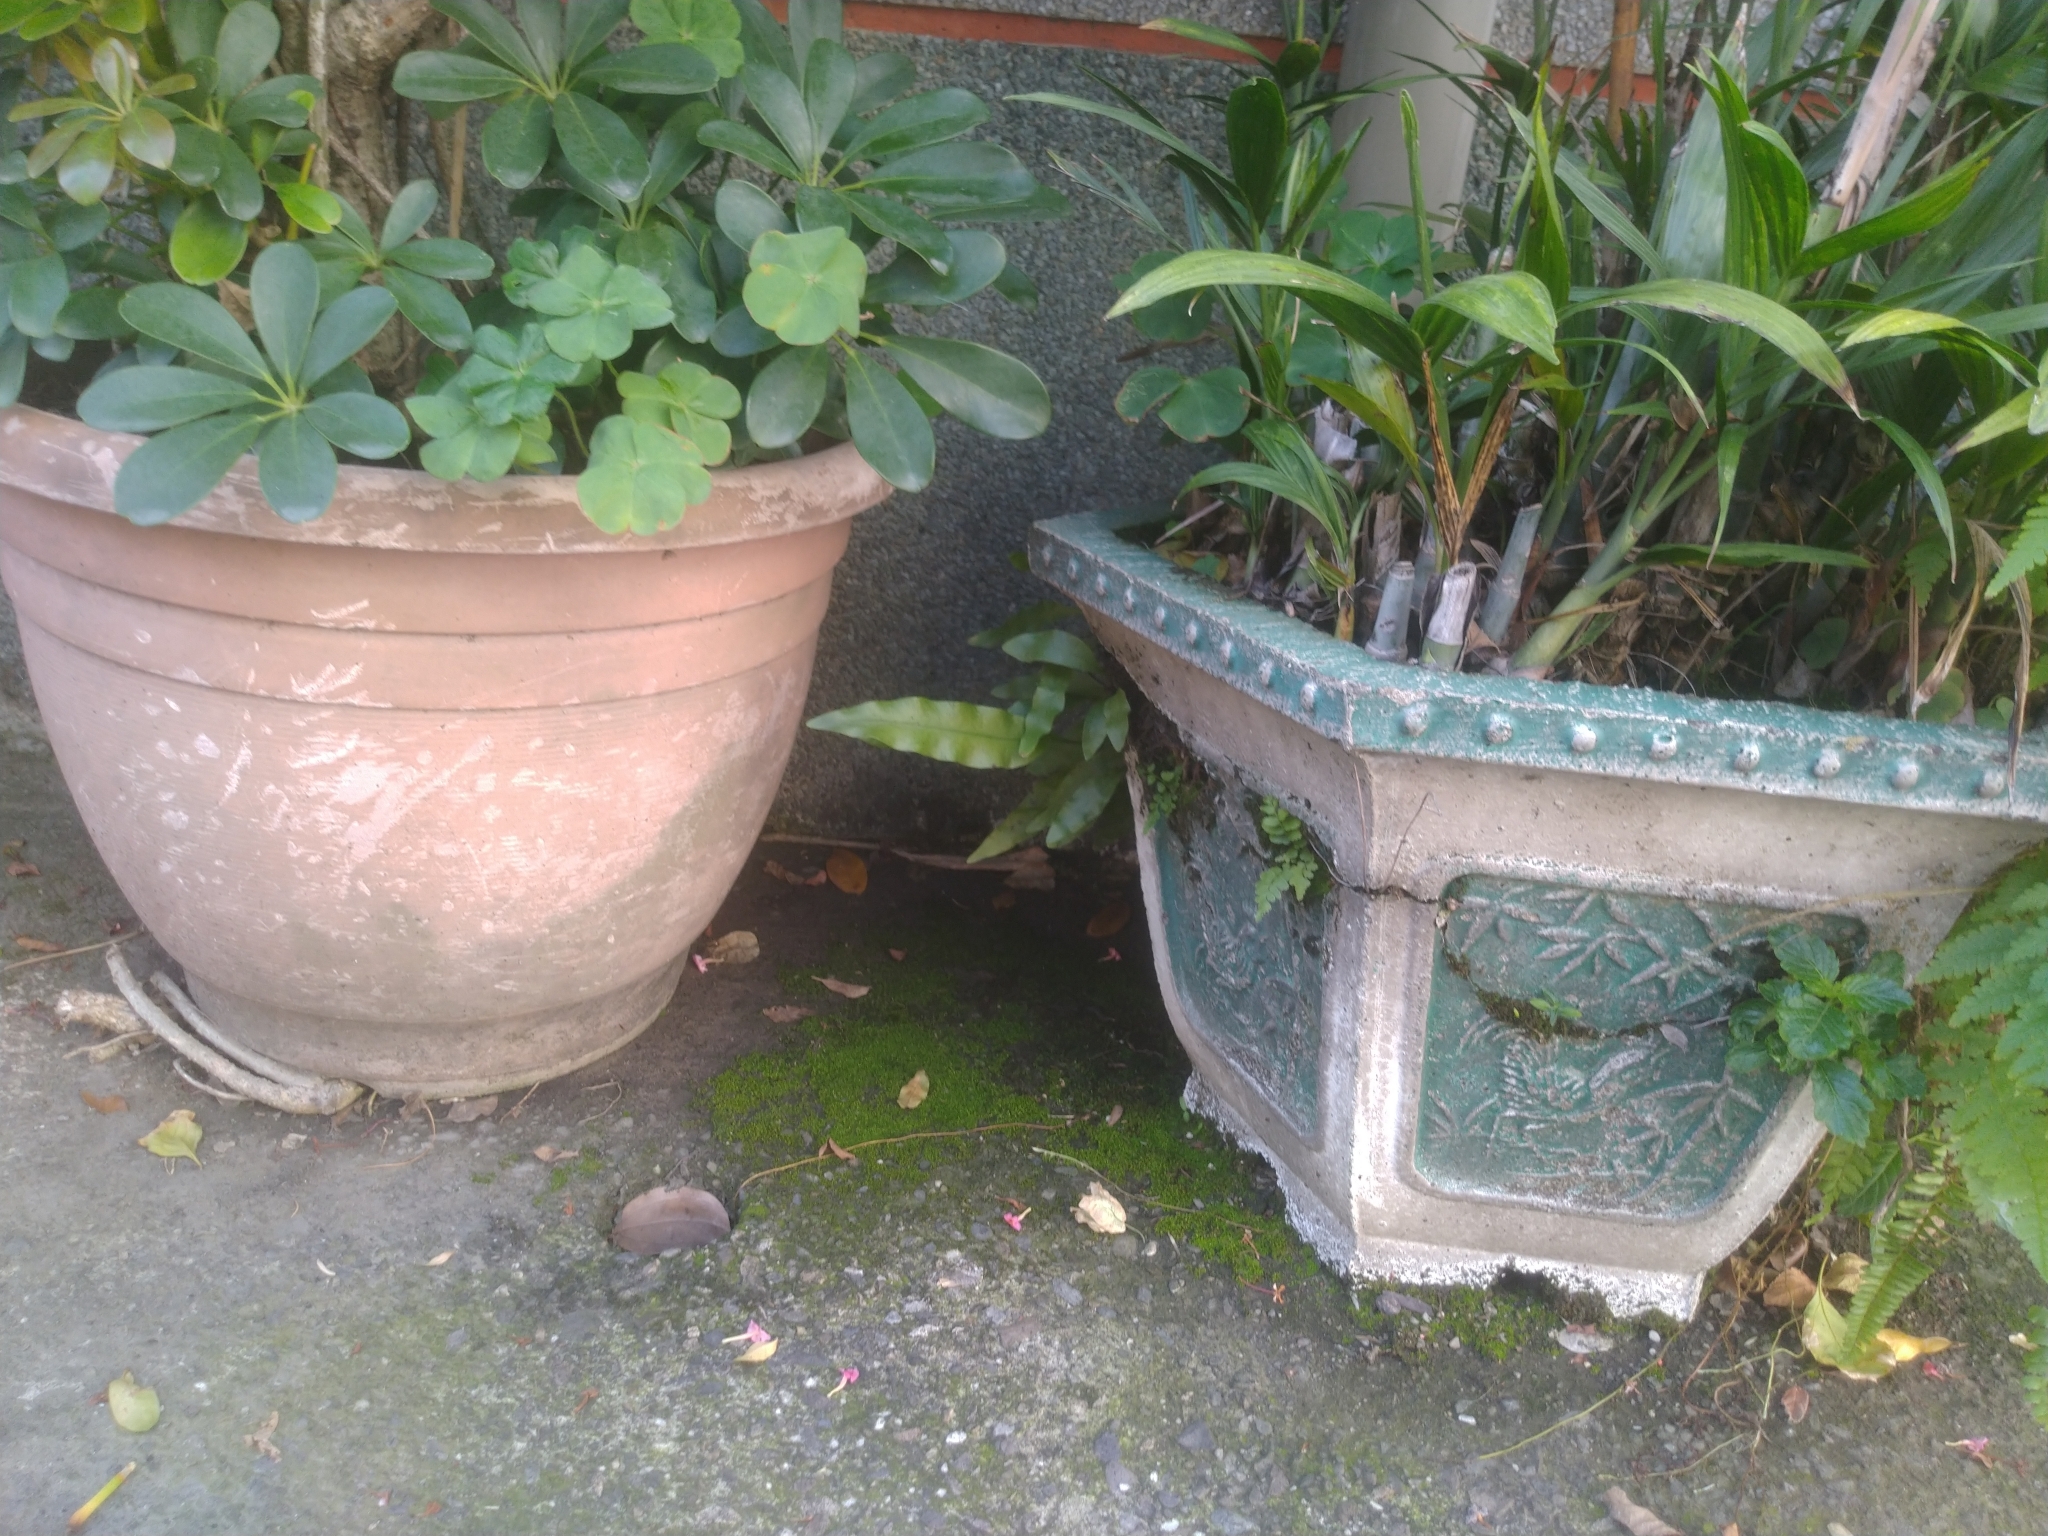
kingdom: Plantae
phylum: Tracheophyta
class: Polypodiopsida
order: Polypodiales
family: Polypodiaceae
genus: Microsorum
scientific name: Microsorum scolopendria
